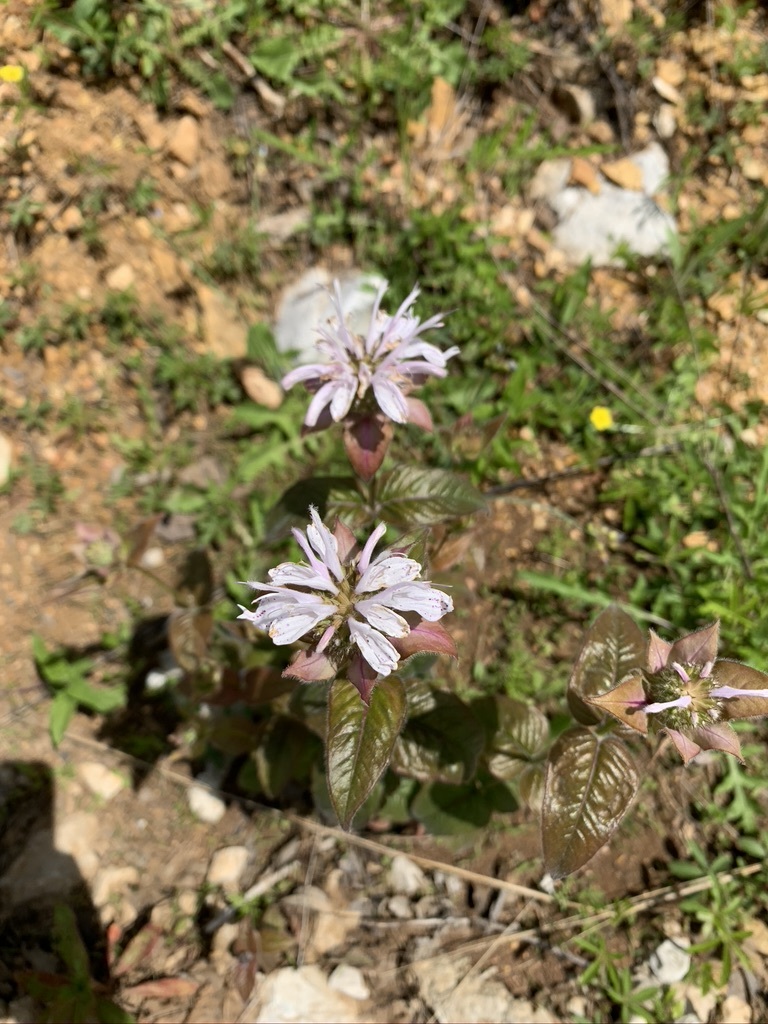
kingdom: Plantae
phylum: Tracheophyta
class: Magnoliopsida
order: Lamiales
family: Lamiaceae
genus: Monarda
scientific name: Monarda bradburiana
